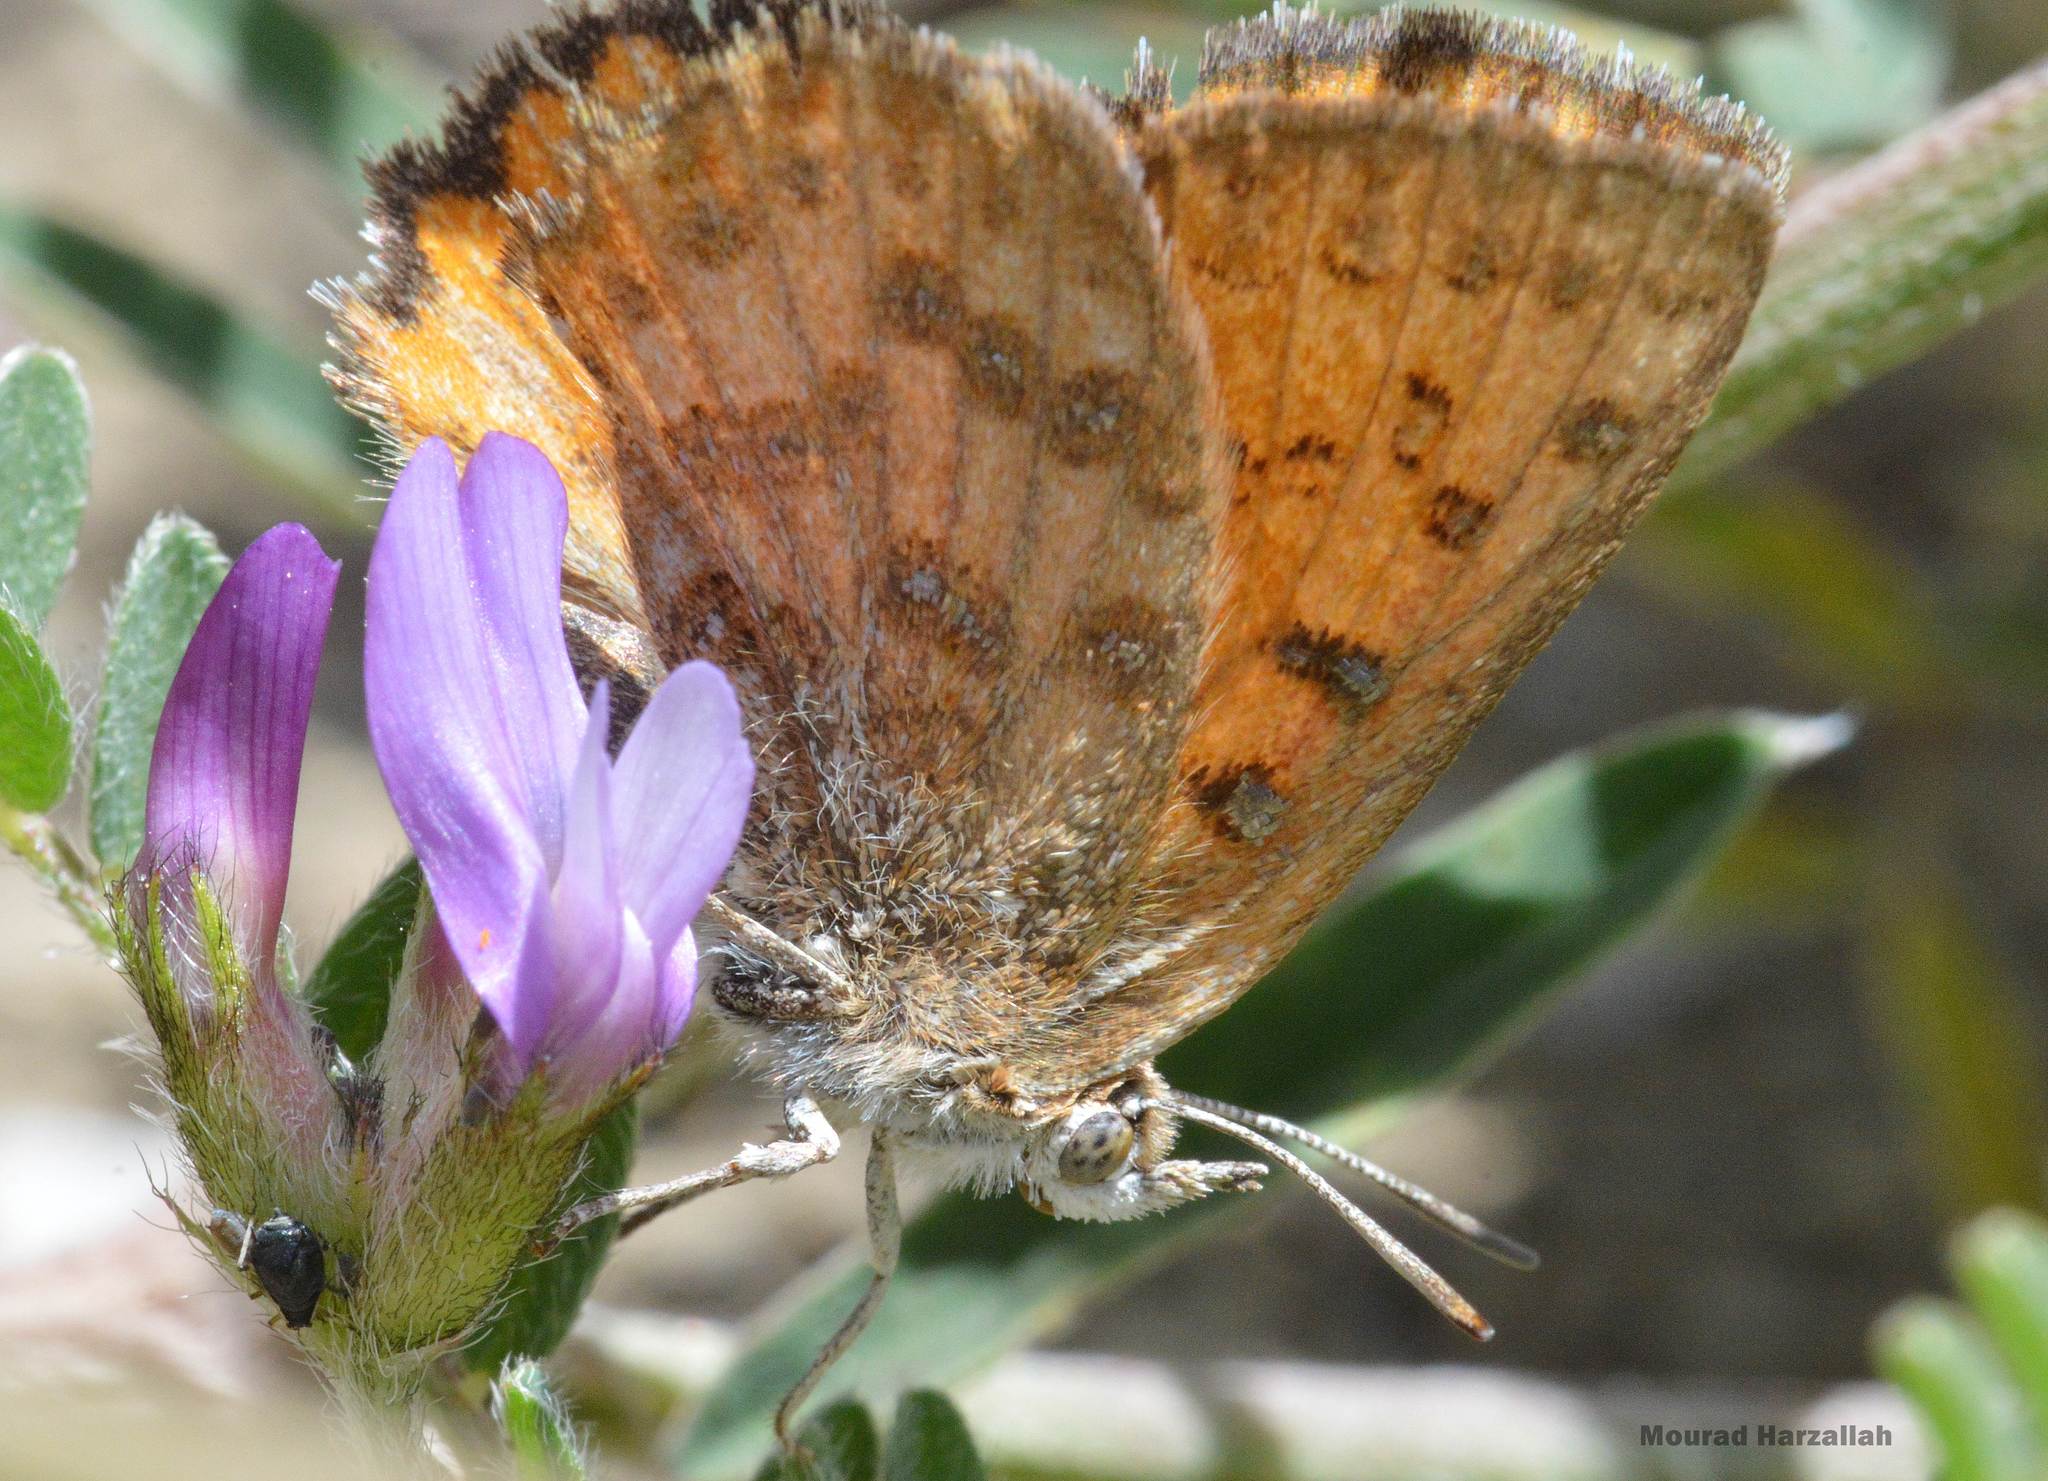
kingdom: Animalia
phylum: Arthropoda
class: Insecta
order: Lepidoptera
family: Lycaenidae
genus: Cigaritis
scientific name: Cigaritis syphax
